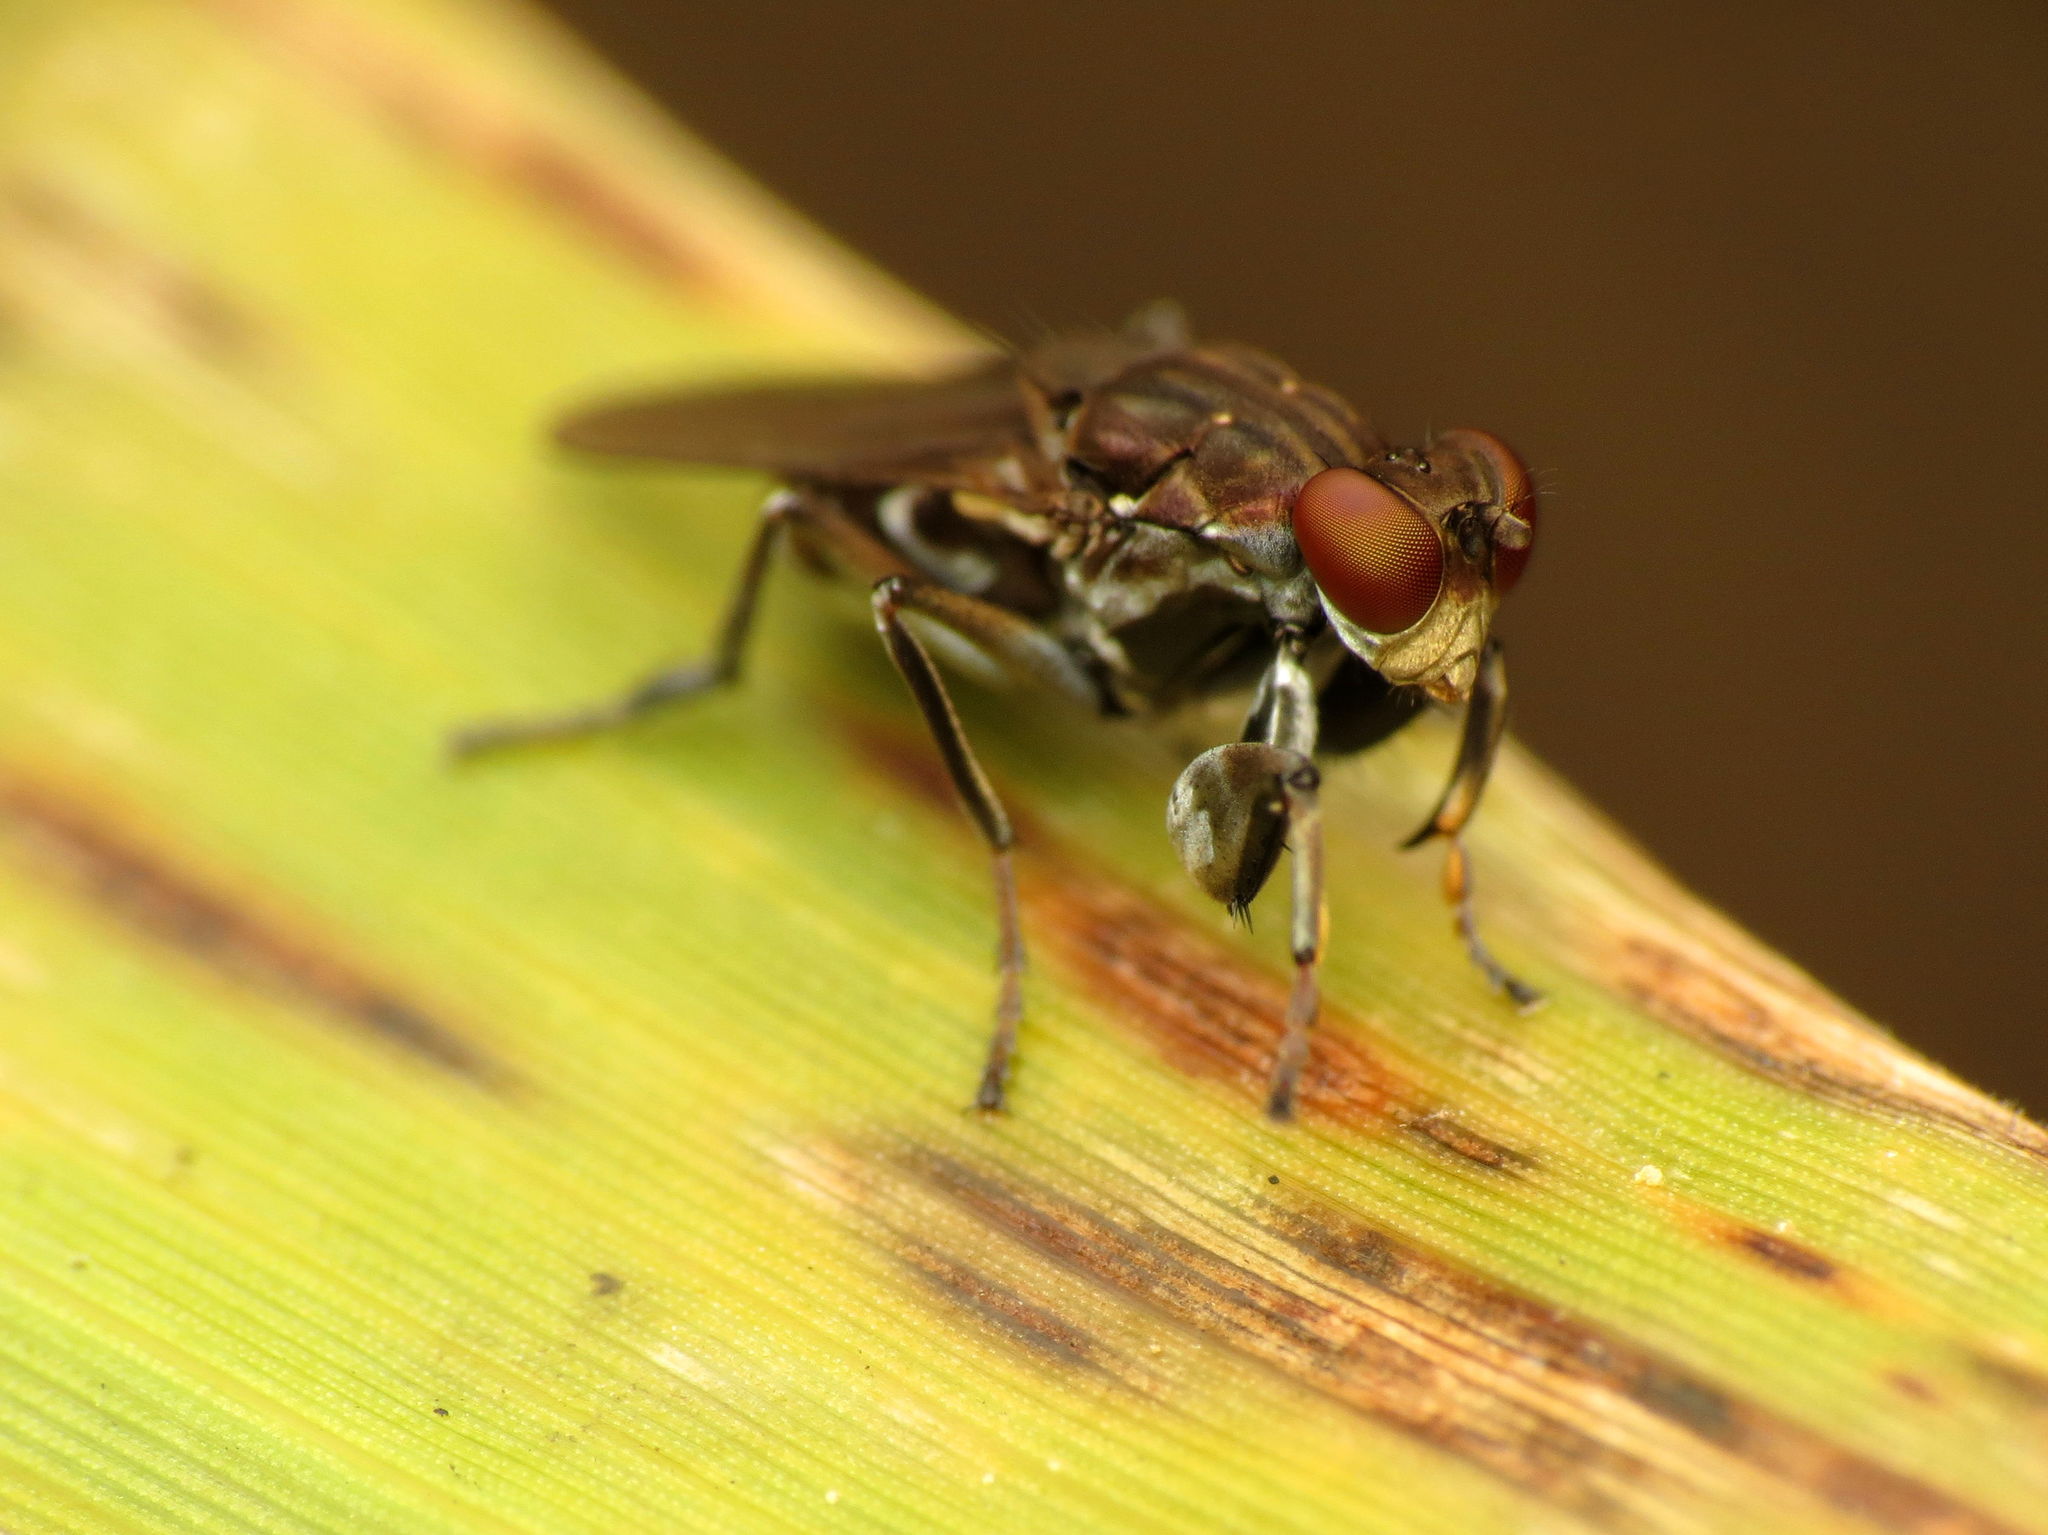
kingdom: Animalia
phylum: Arthropoda
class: Insecta
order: Diptera
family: Ephydridae
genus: Ochthera
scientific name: Ochthera tuberculata
